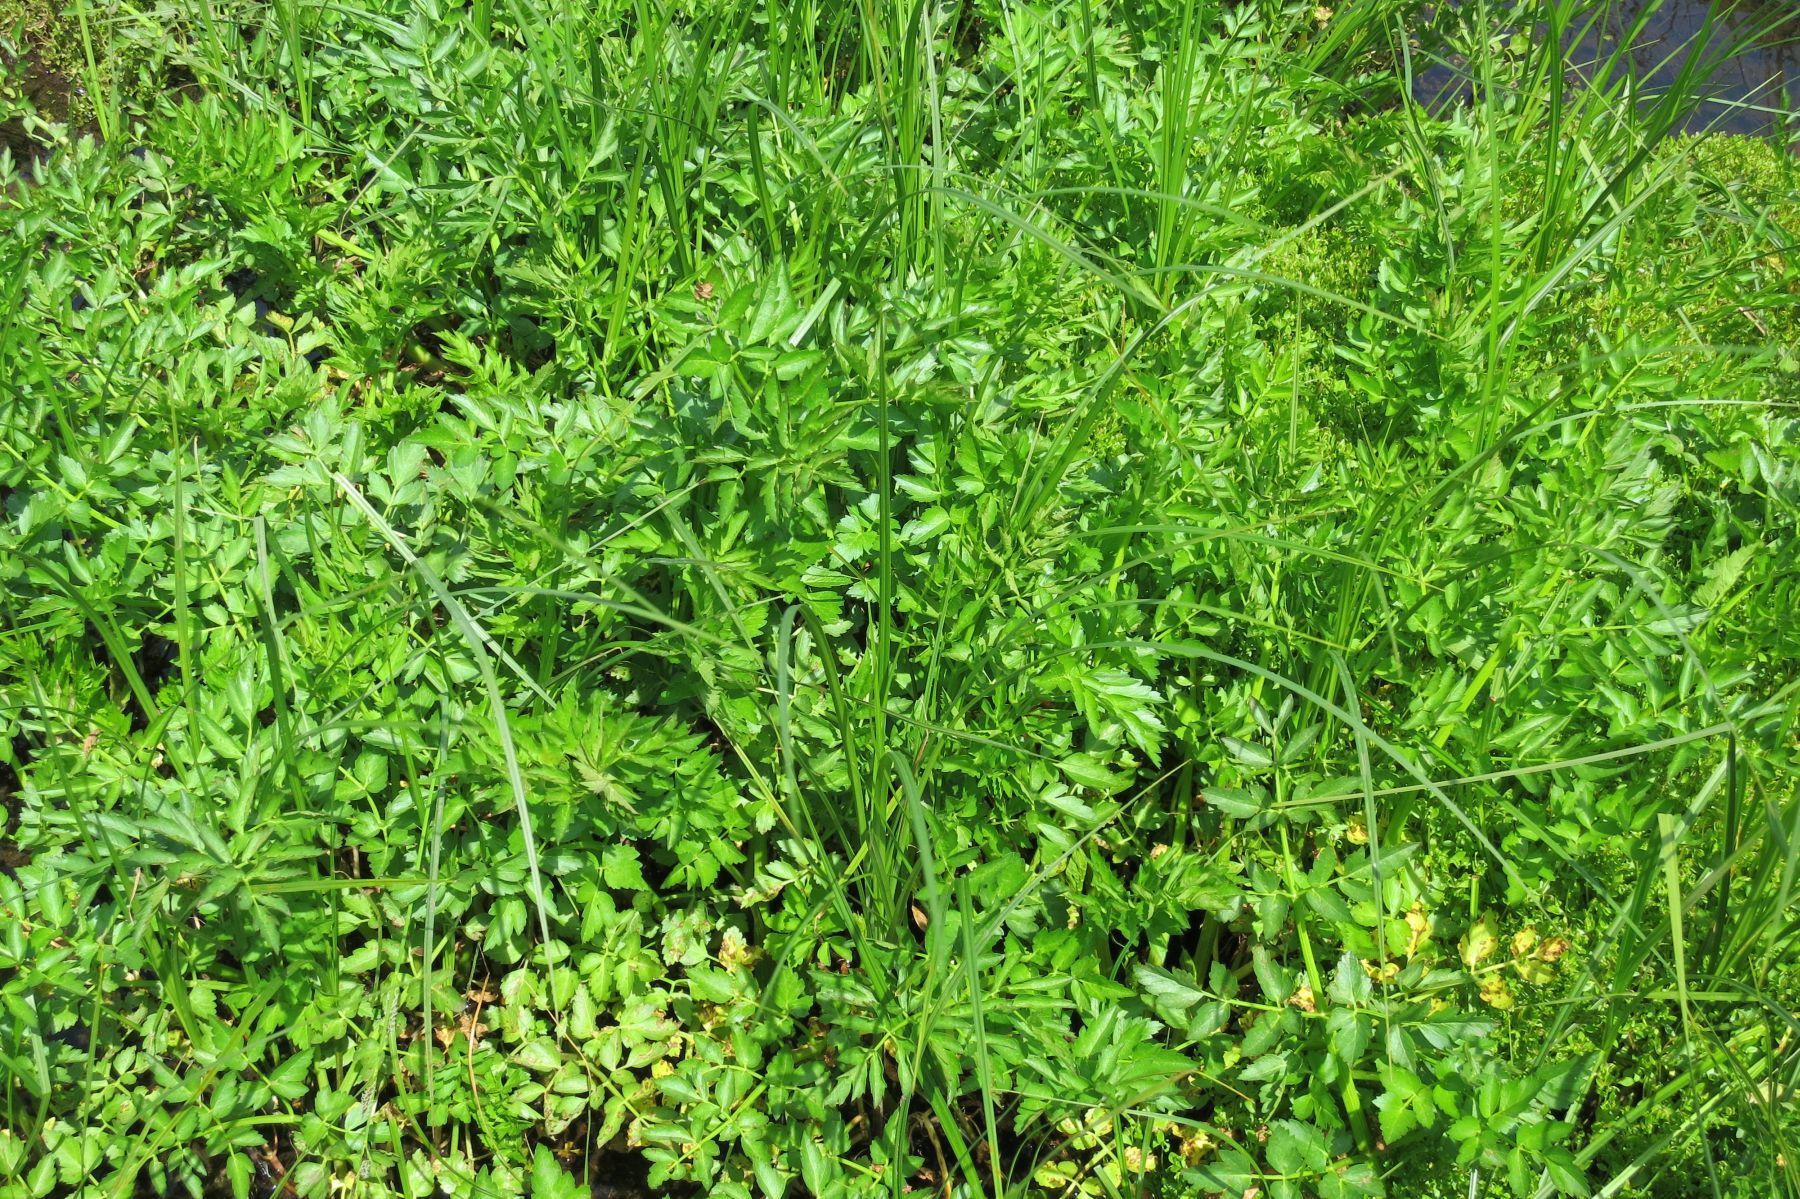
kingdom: Plantae
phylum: Tracheophyta
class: Magnoliopsida
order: Apiales
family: Apiaceae
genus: Oenanthe
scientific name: Oenanthe sarmentosa
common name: American water-parsley
